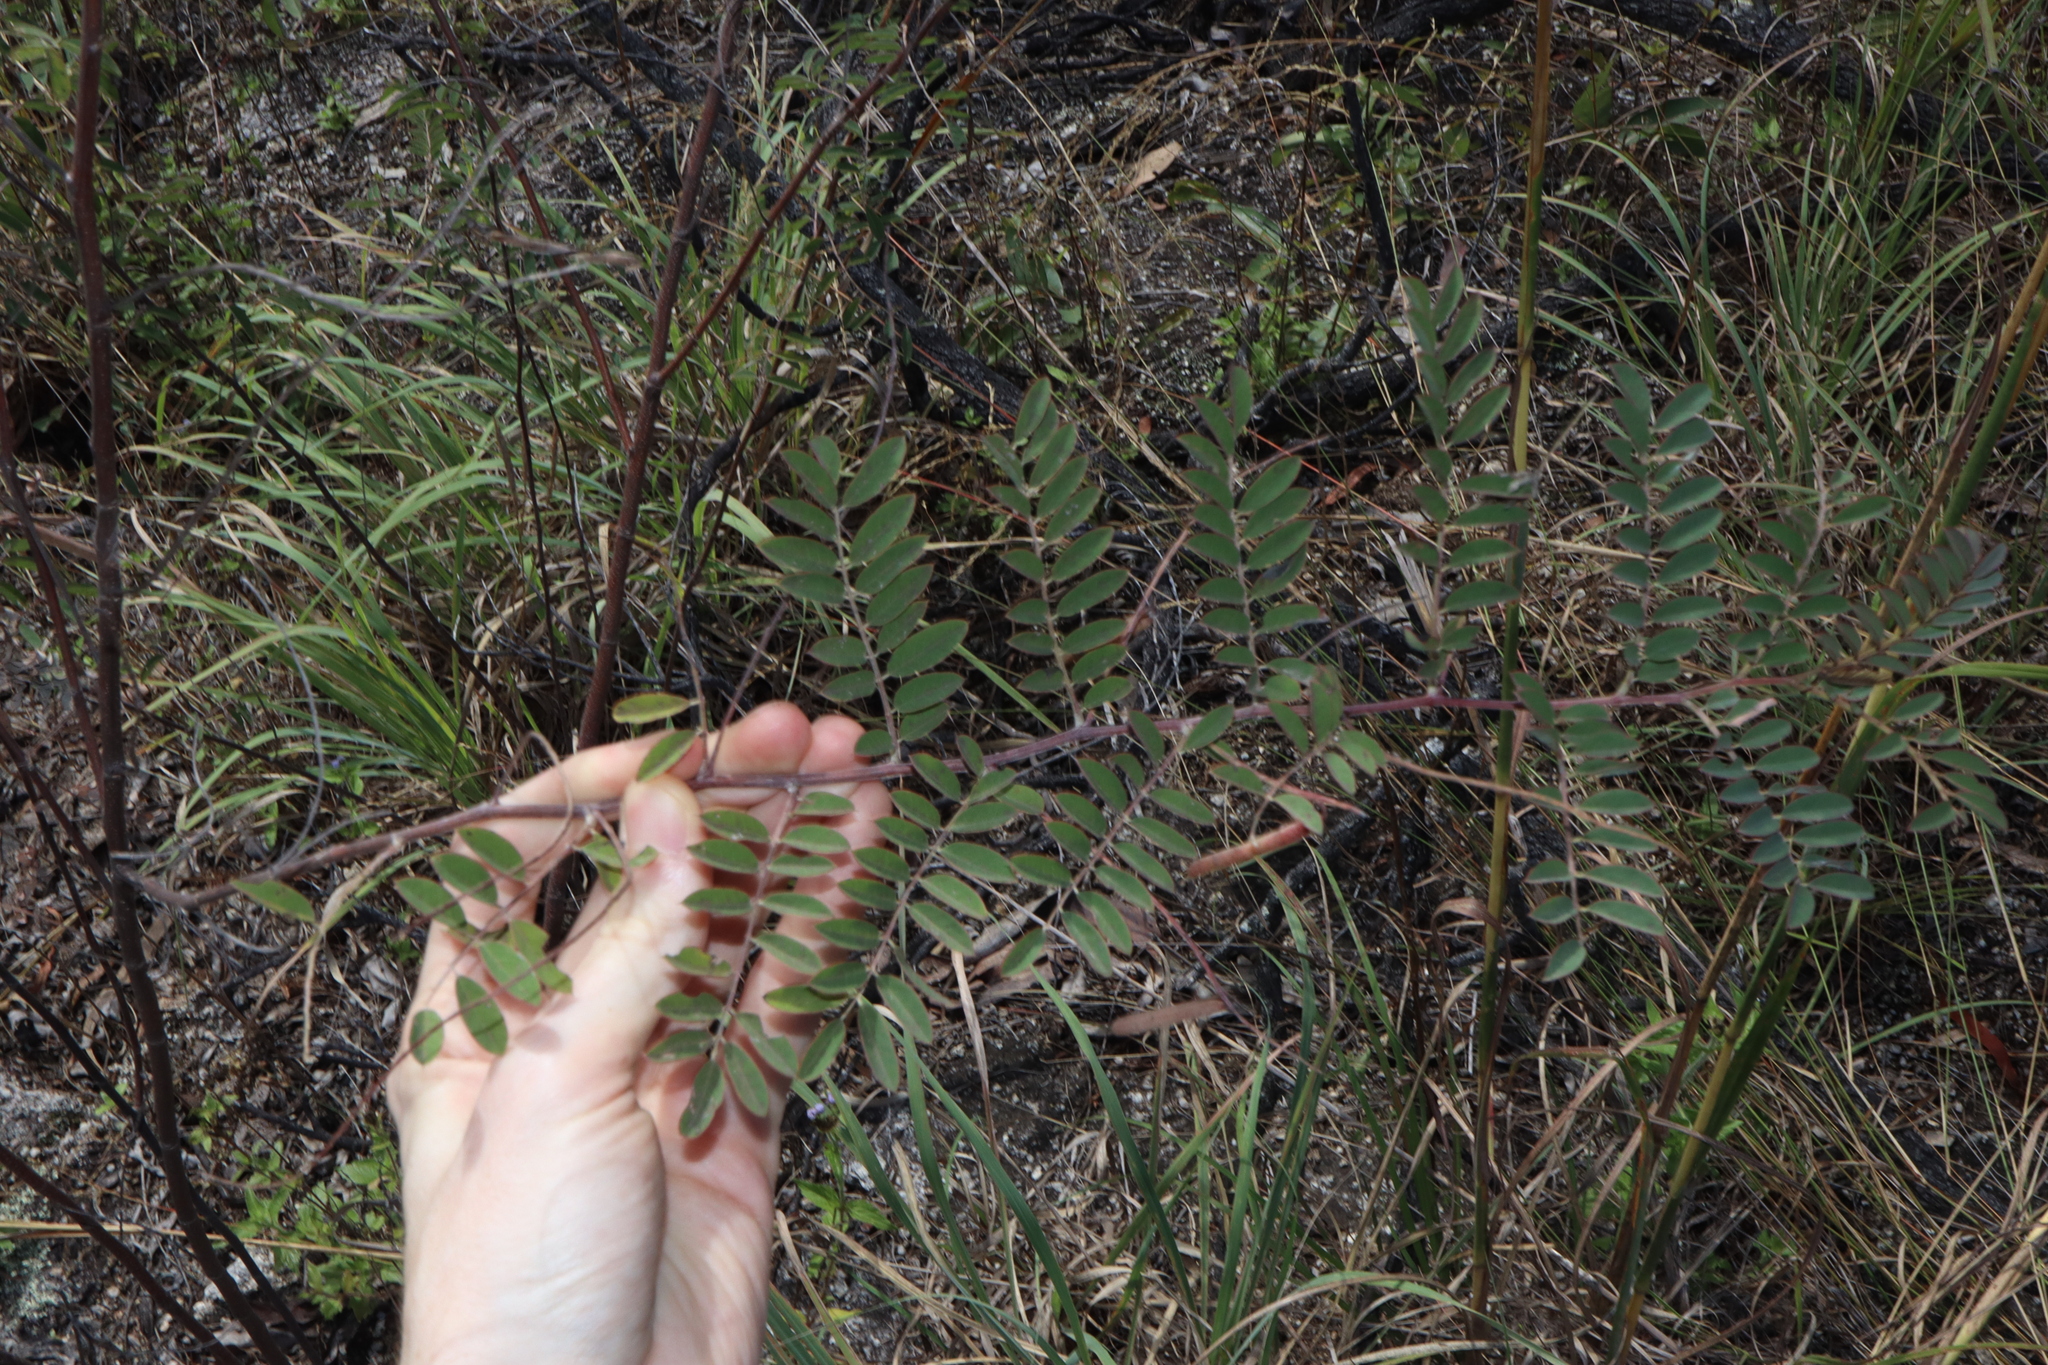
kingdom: Plantae
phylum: Tracheophyta
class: Magnoliopsida
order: Fabales
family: Fabaceae
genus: Indigofera
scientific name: Indigofera pratensis
